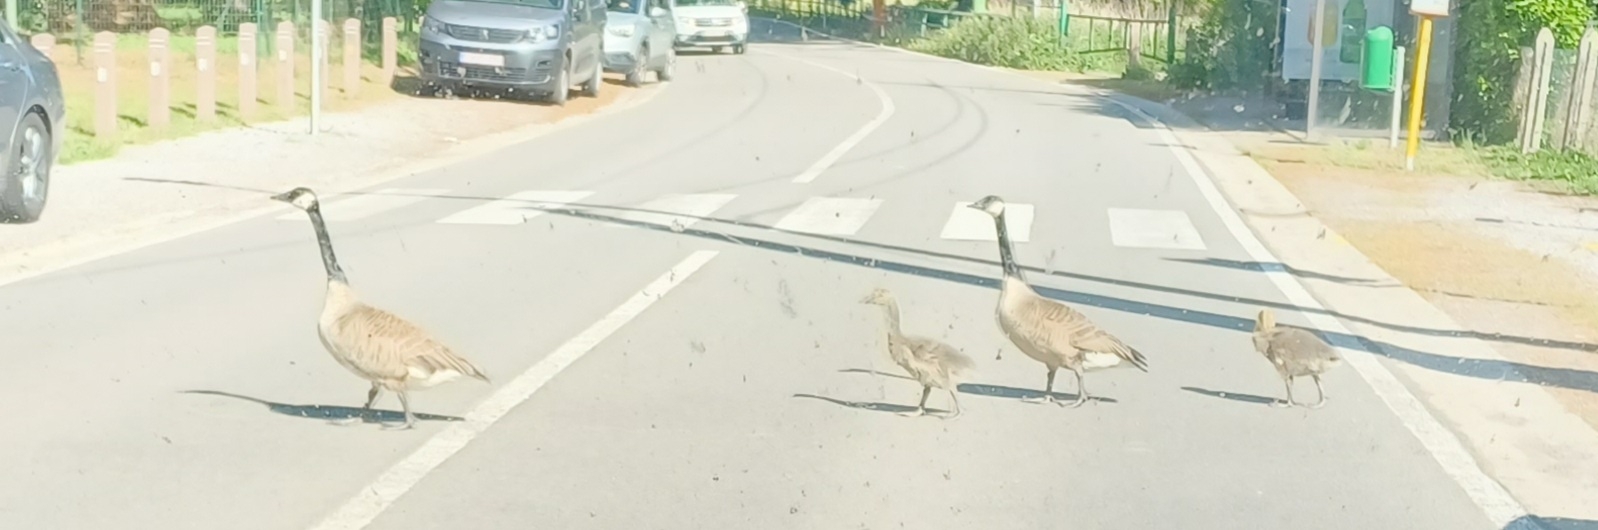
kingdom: Animalia
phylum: Chordata
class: Aves
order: Anseriformes
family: Anatidae
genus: Branta
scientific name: Branta canadensis
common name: Canada goose
